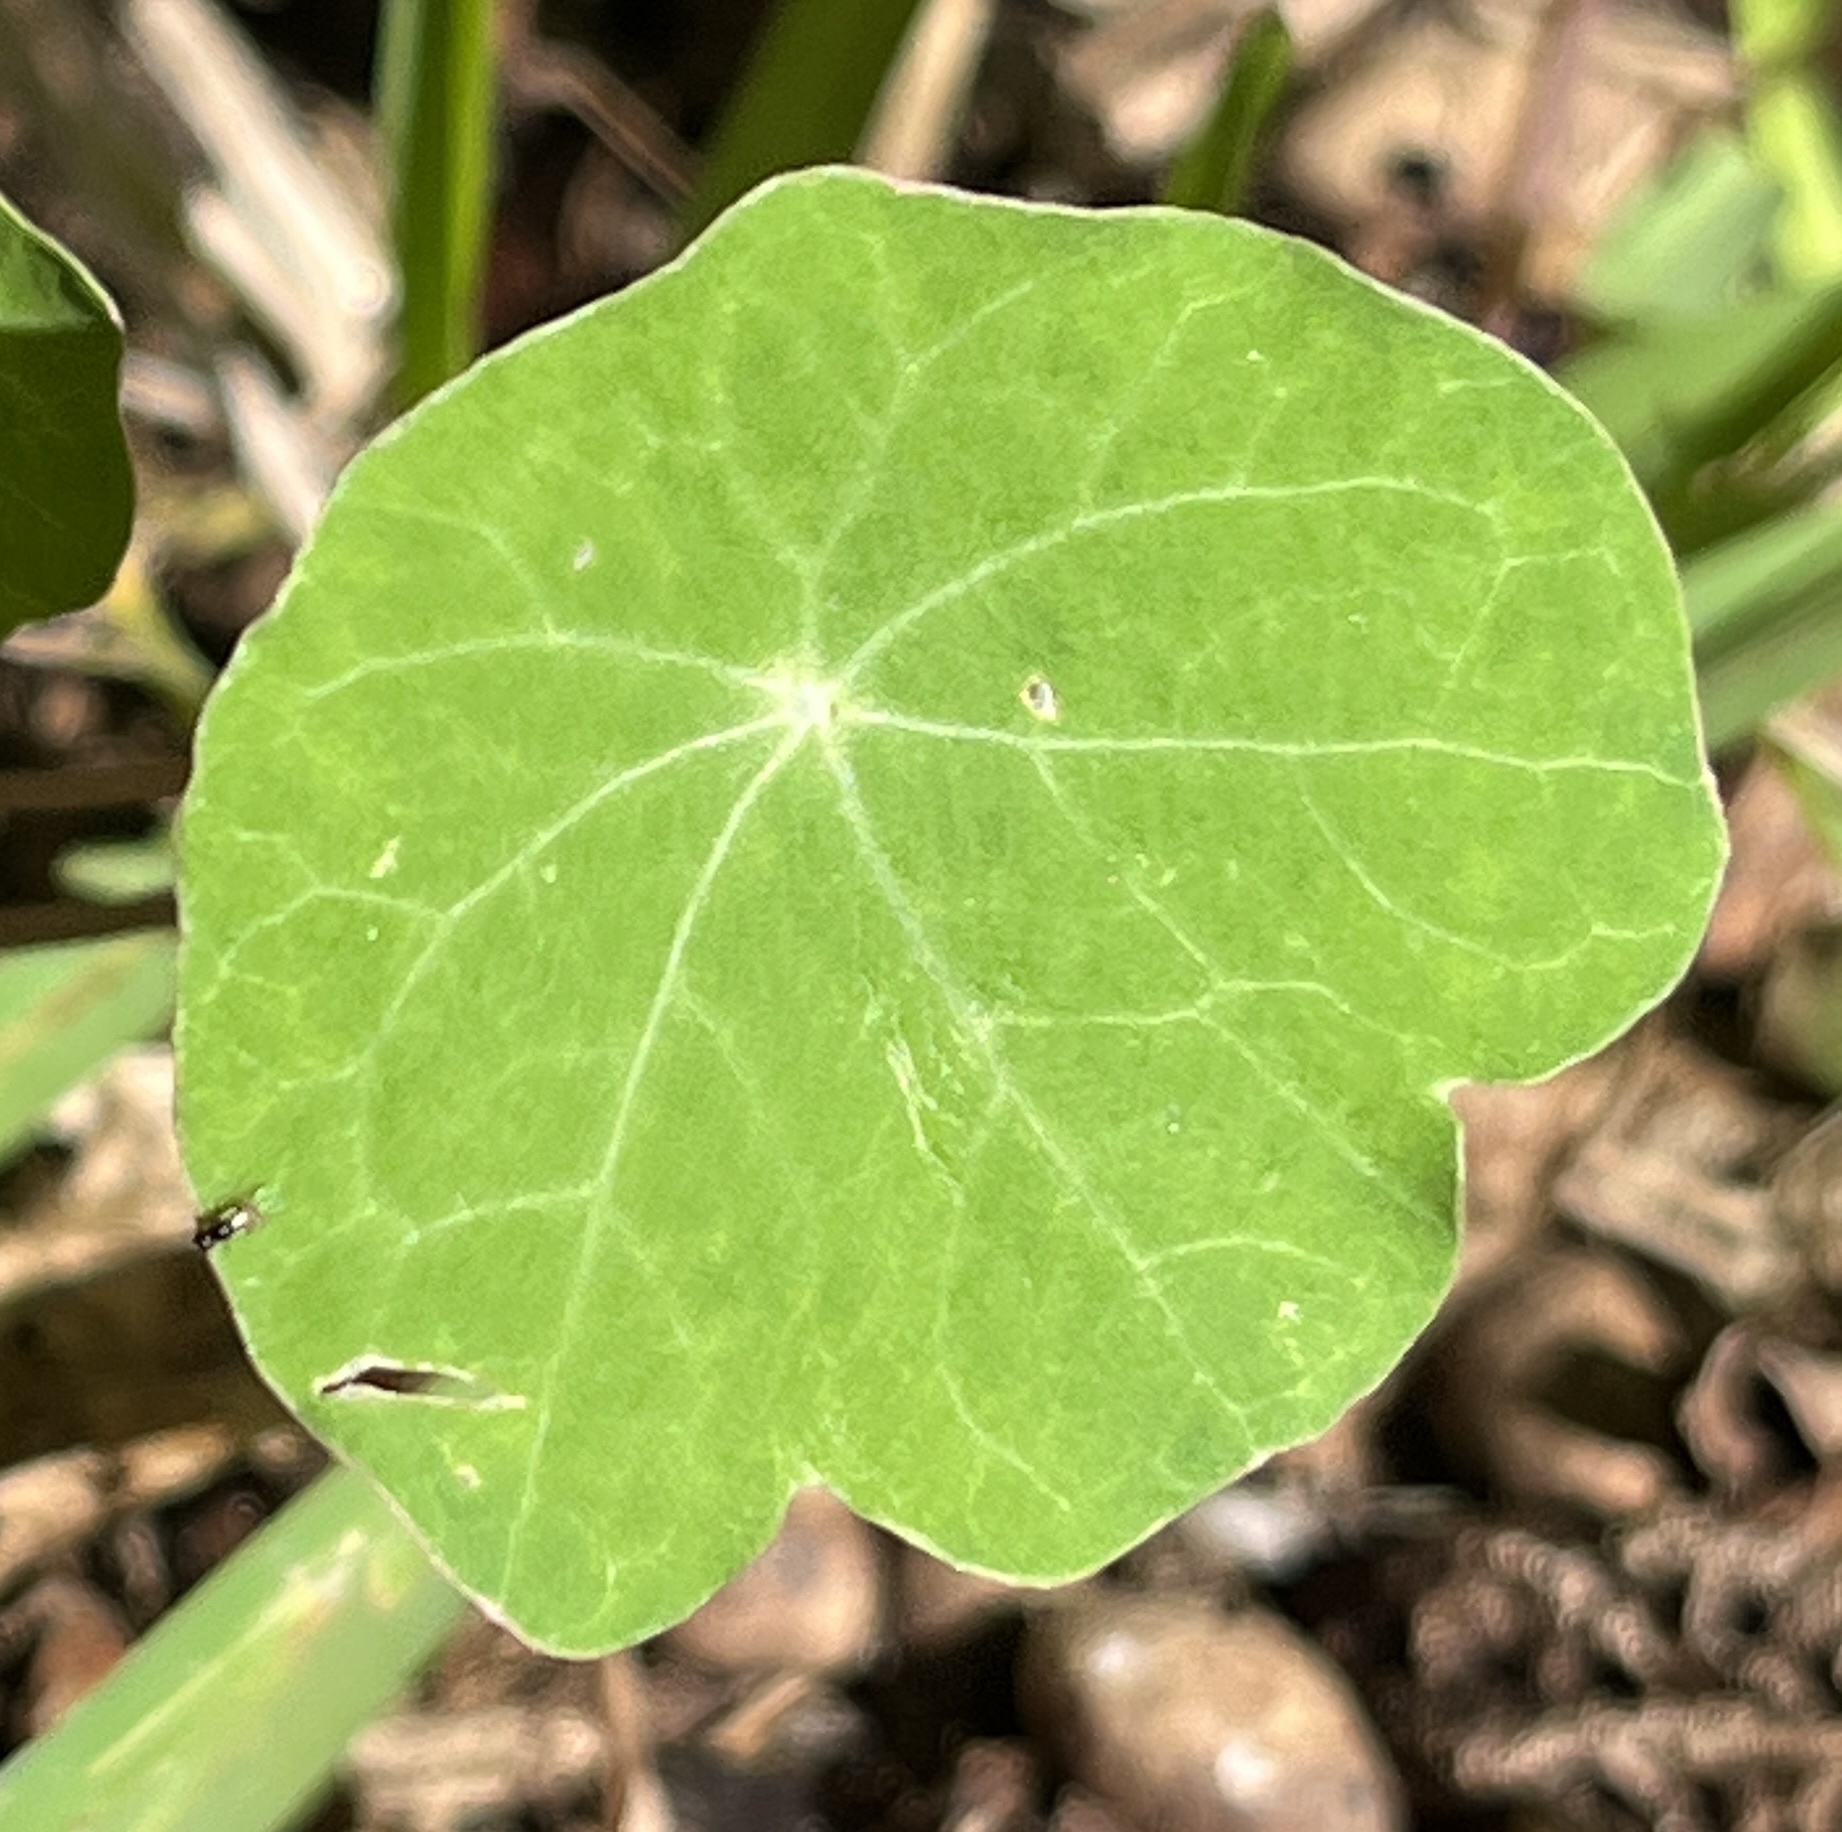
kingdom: Plantae
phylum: Tracheophyta
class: Magnoliopsida
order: Brassicales
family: Tropaeolaceae
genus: Tropaeolum
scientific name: Tropaeolum majus
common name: Nasturtium
